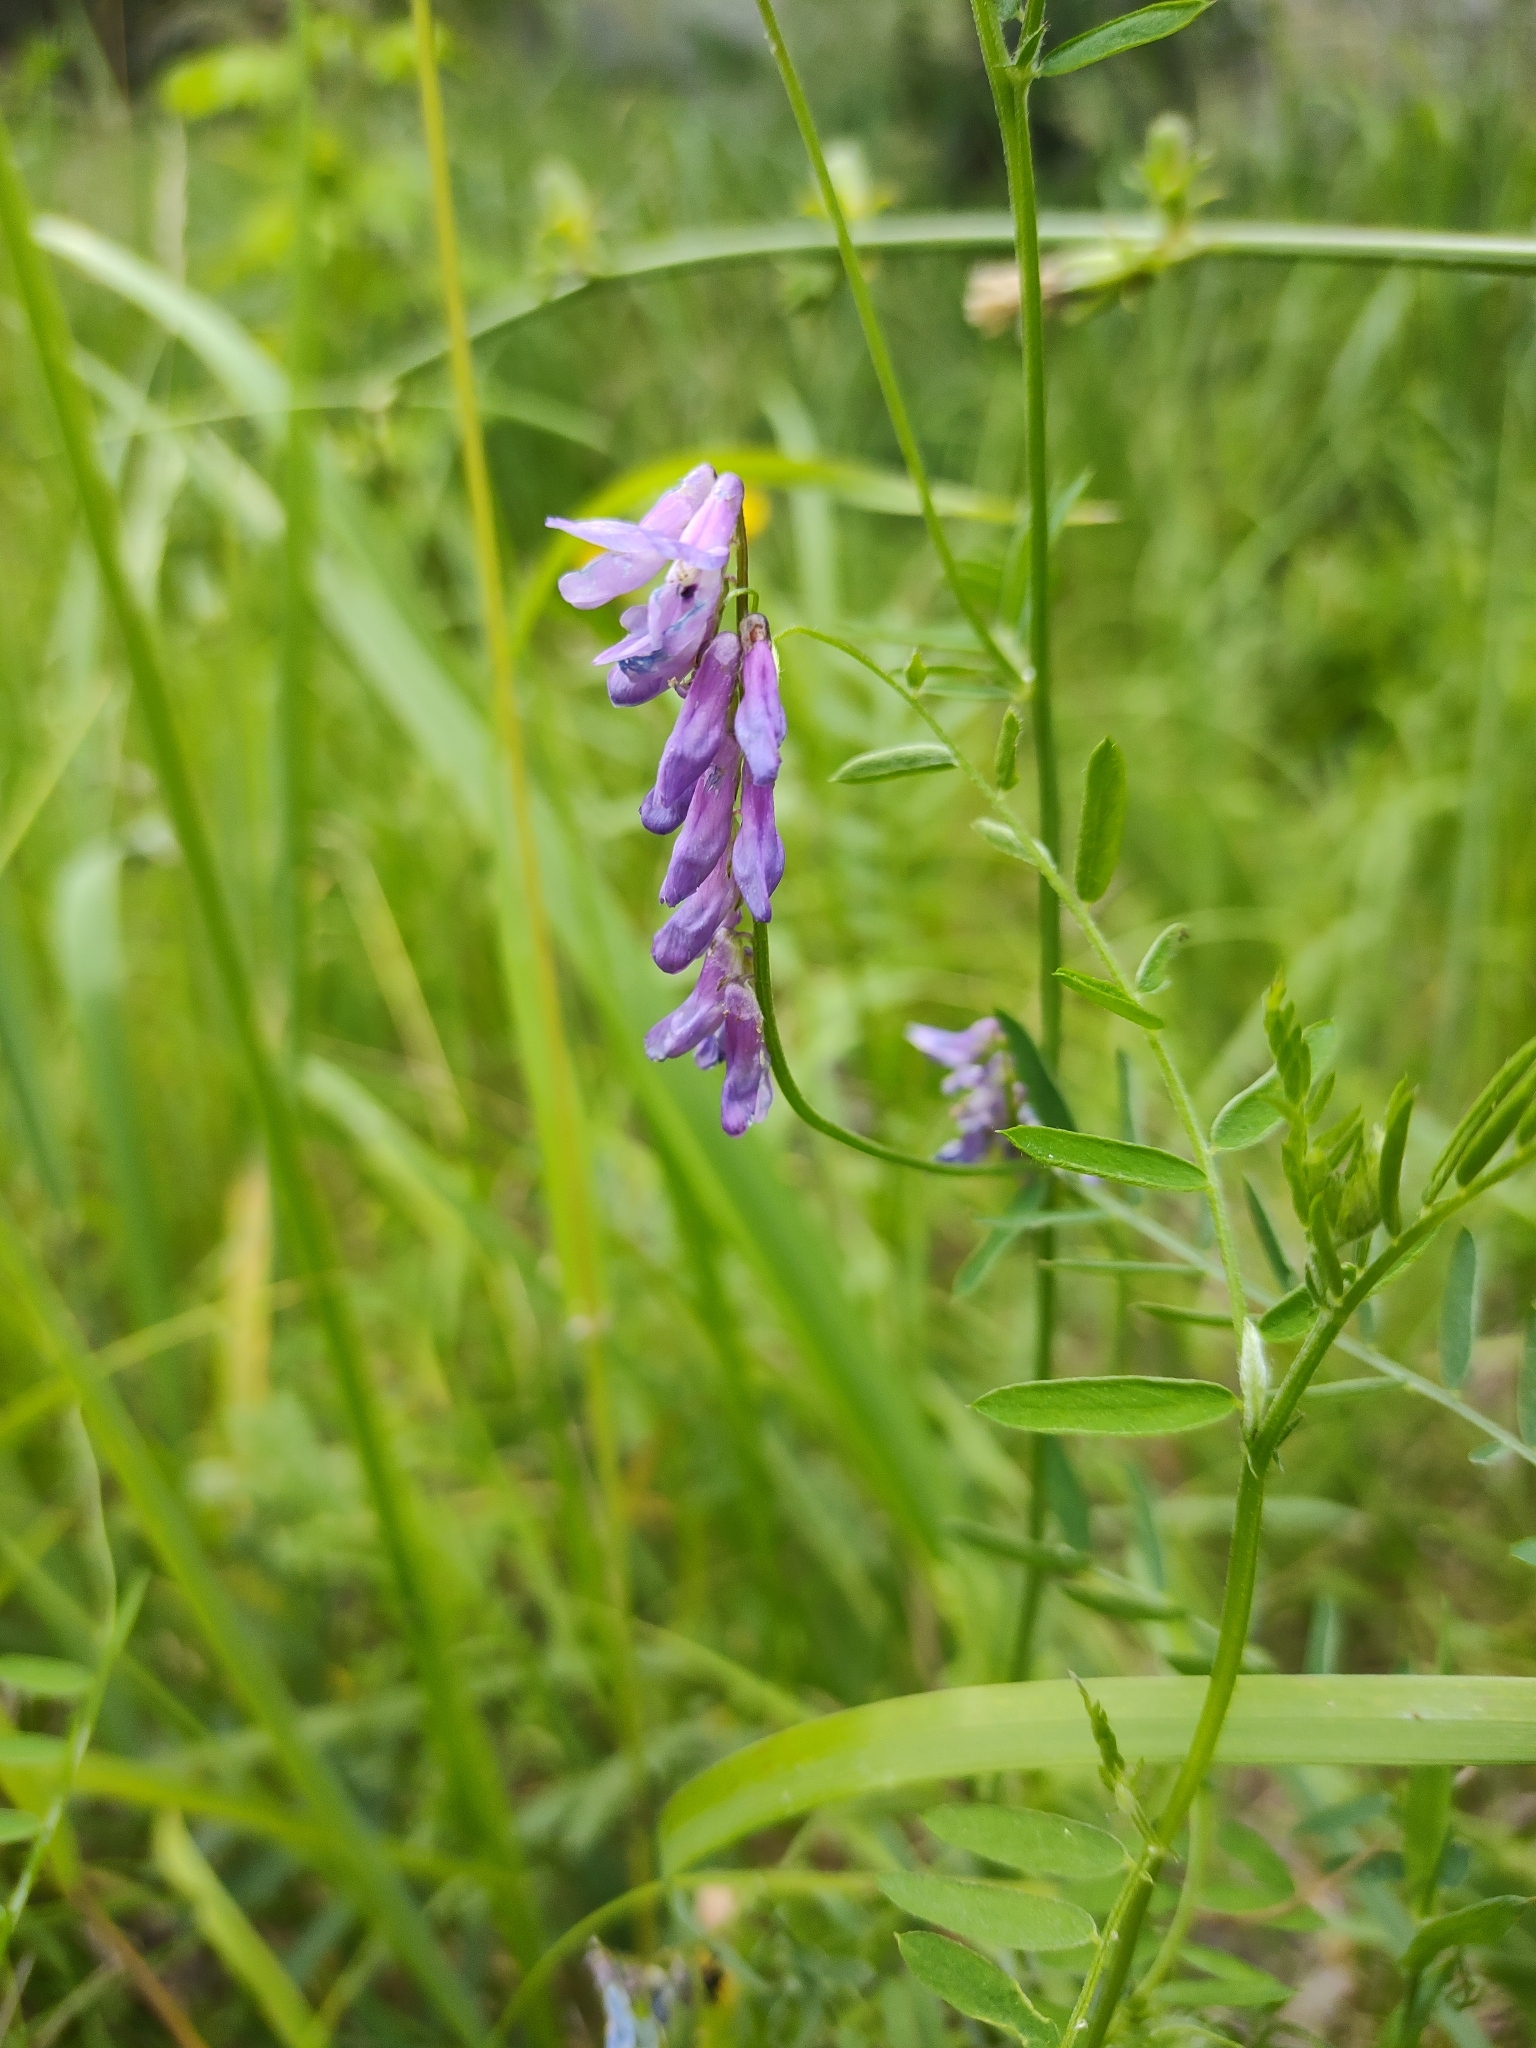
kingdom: Plantae
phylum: Tracheophyta
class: Magnoliopsida
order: Fabales
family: Fabaceae
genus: Vicia
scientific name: Vicia cracca
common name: Bird vetch
